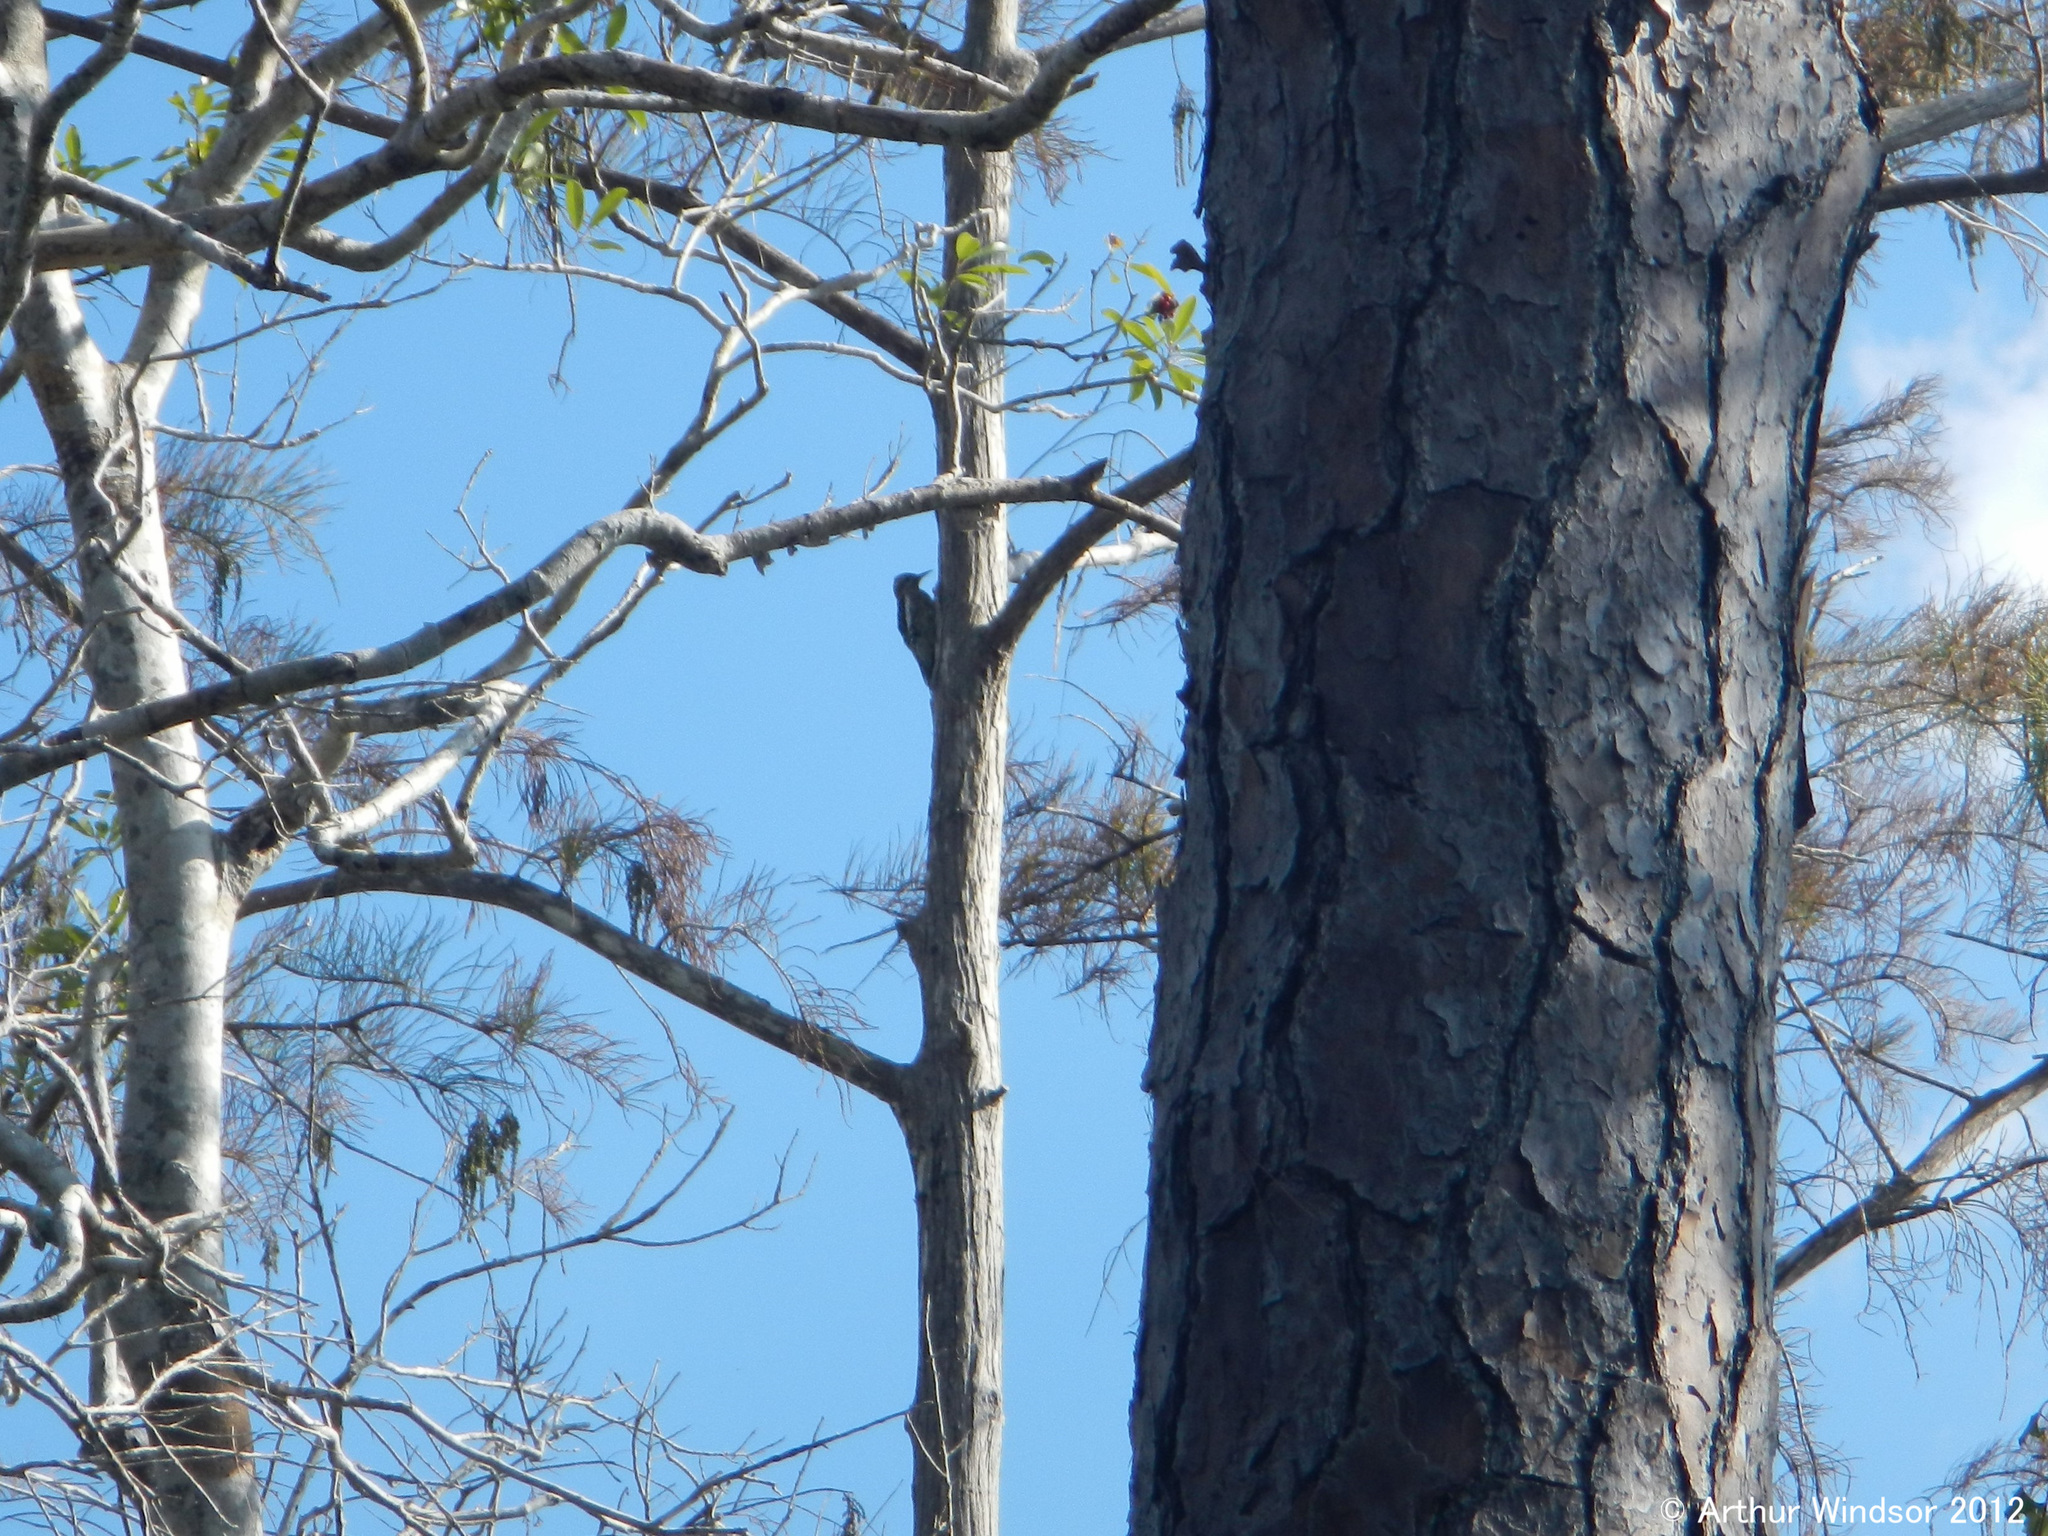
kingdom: Animalia
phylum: Chordata
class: Aves
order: Piciformes
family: Picidae
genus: Sphyrapicus
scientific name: Sphyrapicus varius
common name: Yellow-bellied sapsucker
